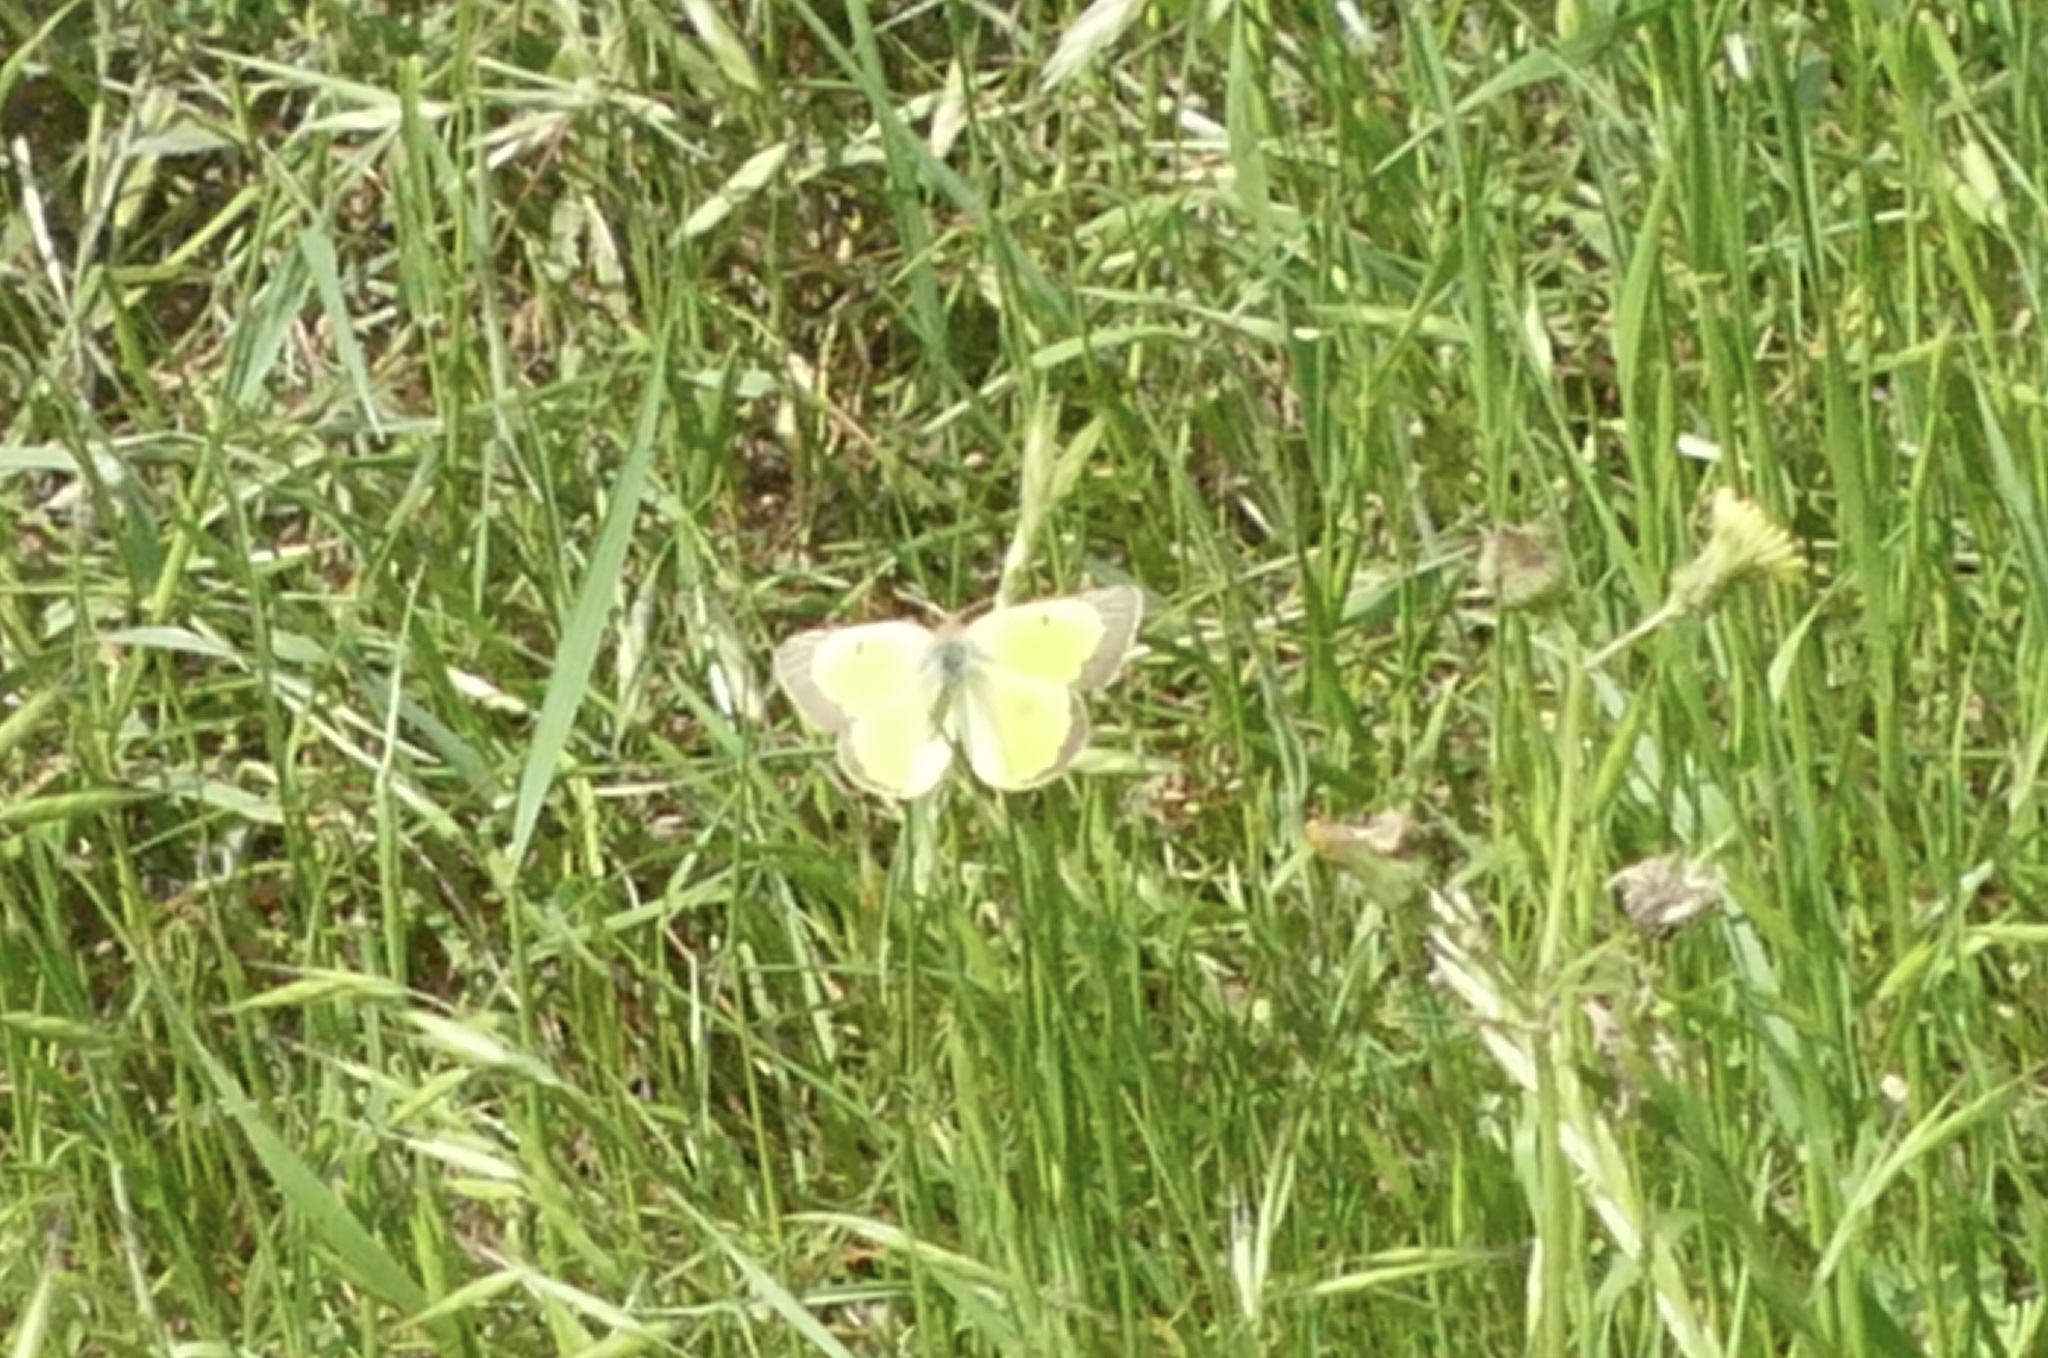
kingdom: Animalia
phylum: Arthropoda
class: Insecta
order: Lepidoptera
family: Pieridae
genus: Colias
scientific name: Colias eurytheme
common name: Alfalfa butterfly
